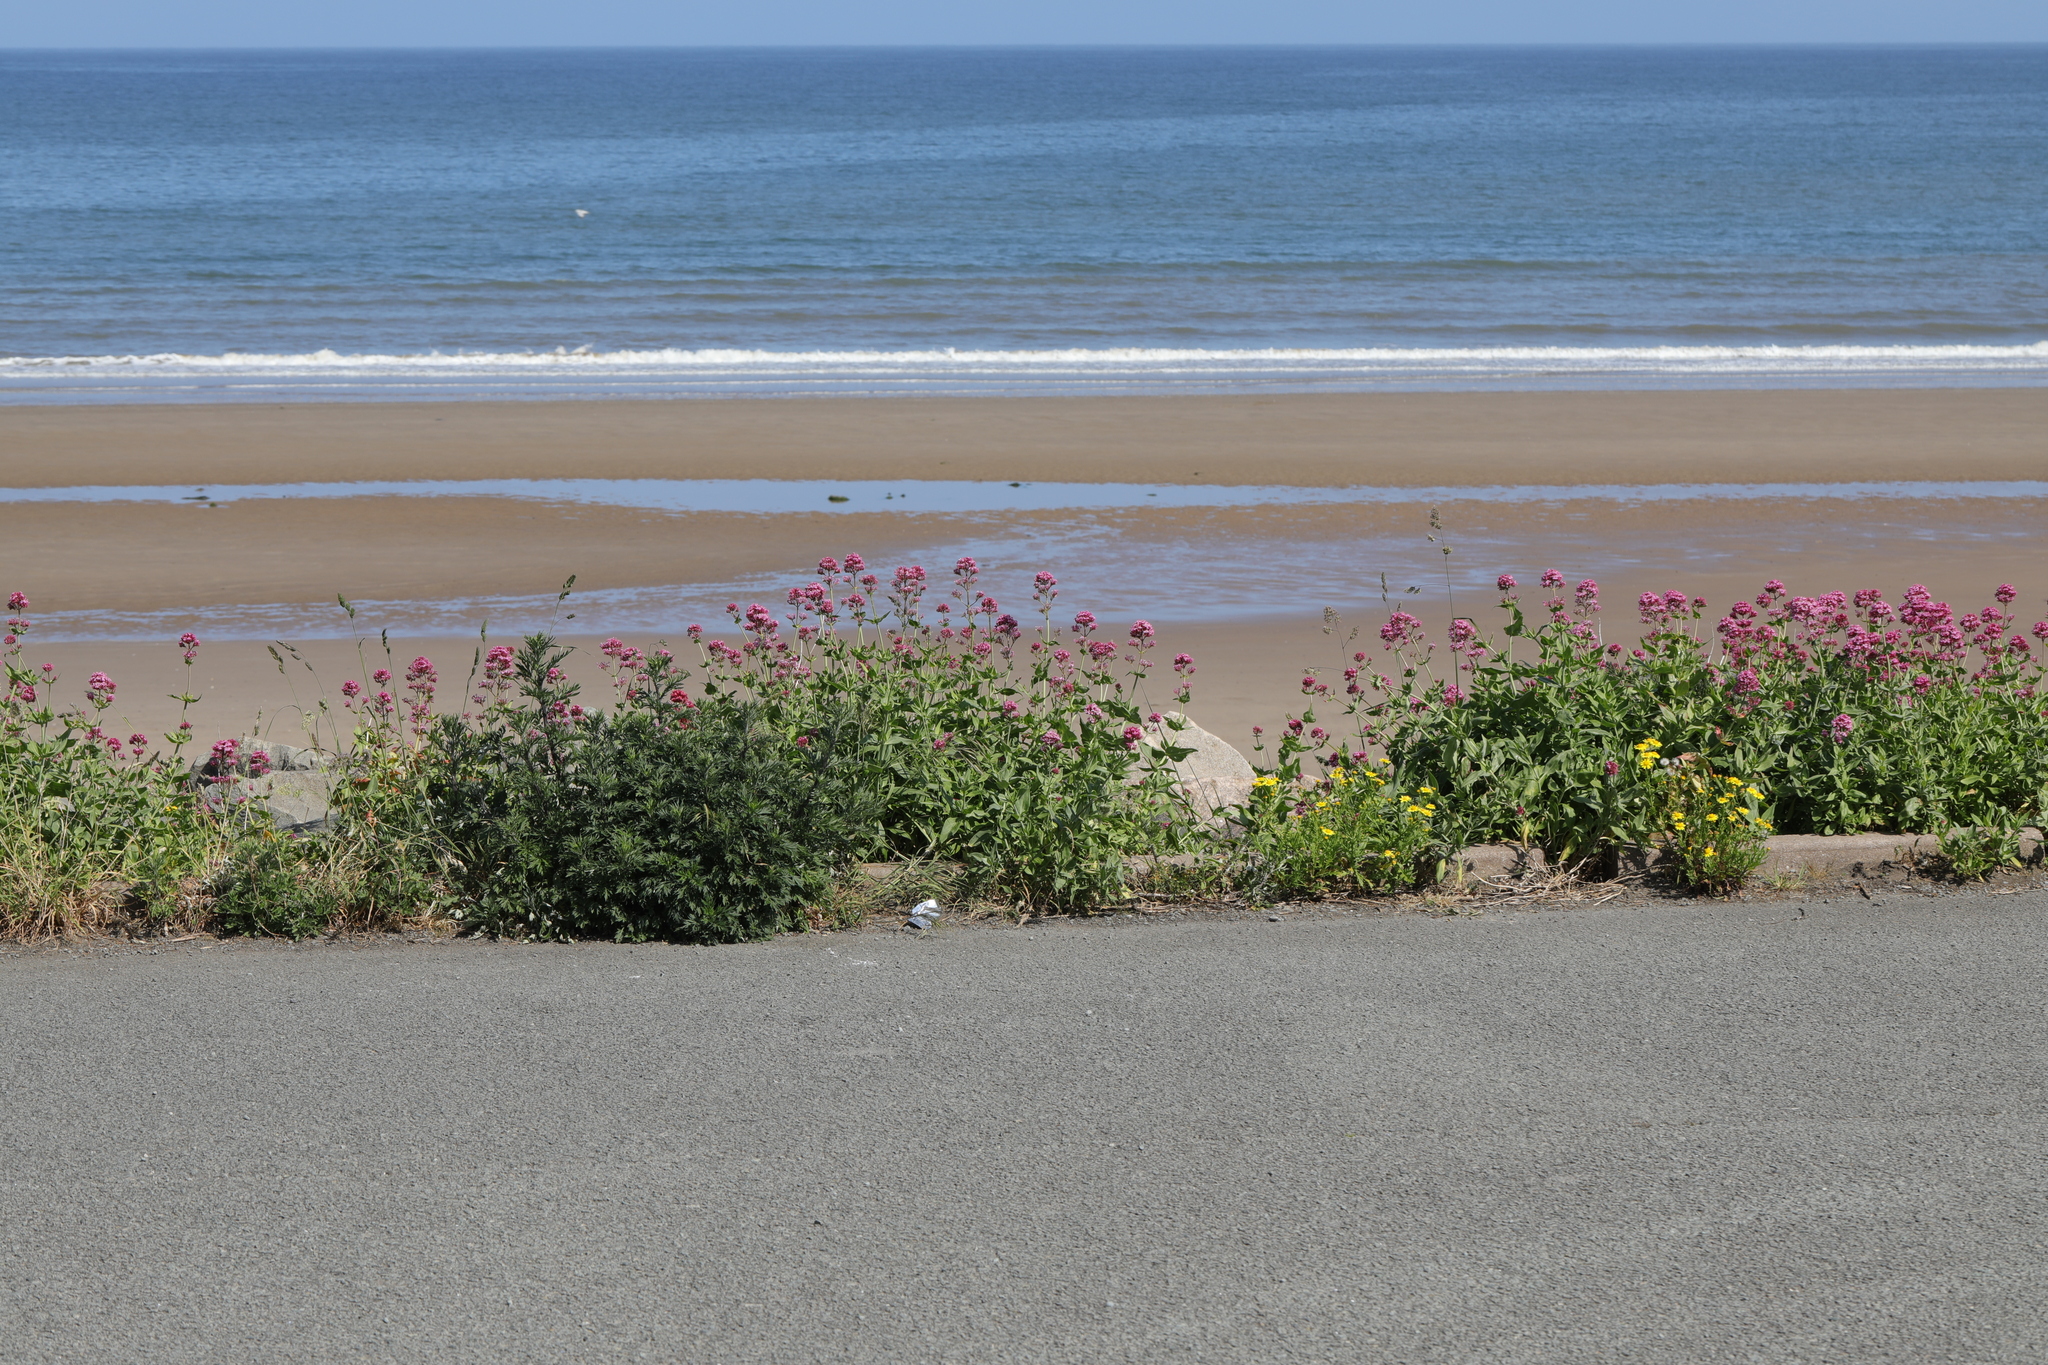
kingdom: Plantae
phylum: Tracheophyta
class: Magnoliopsida
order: Dipsacales
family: Caprifoliaceae
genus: Centranthus
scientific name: Centranthus ruber
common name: Red valerian
